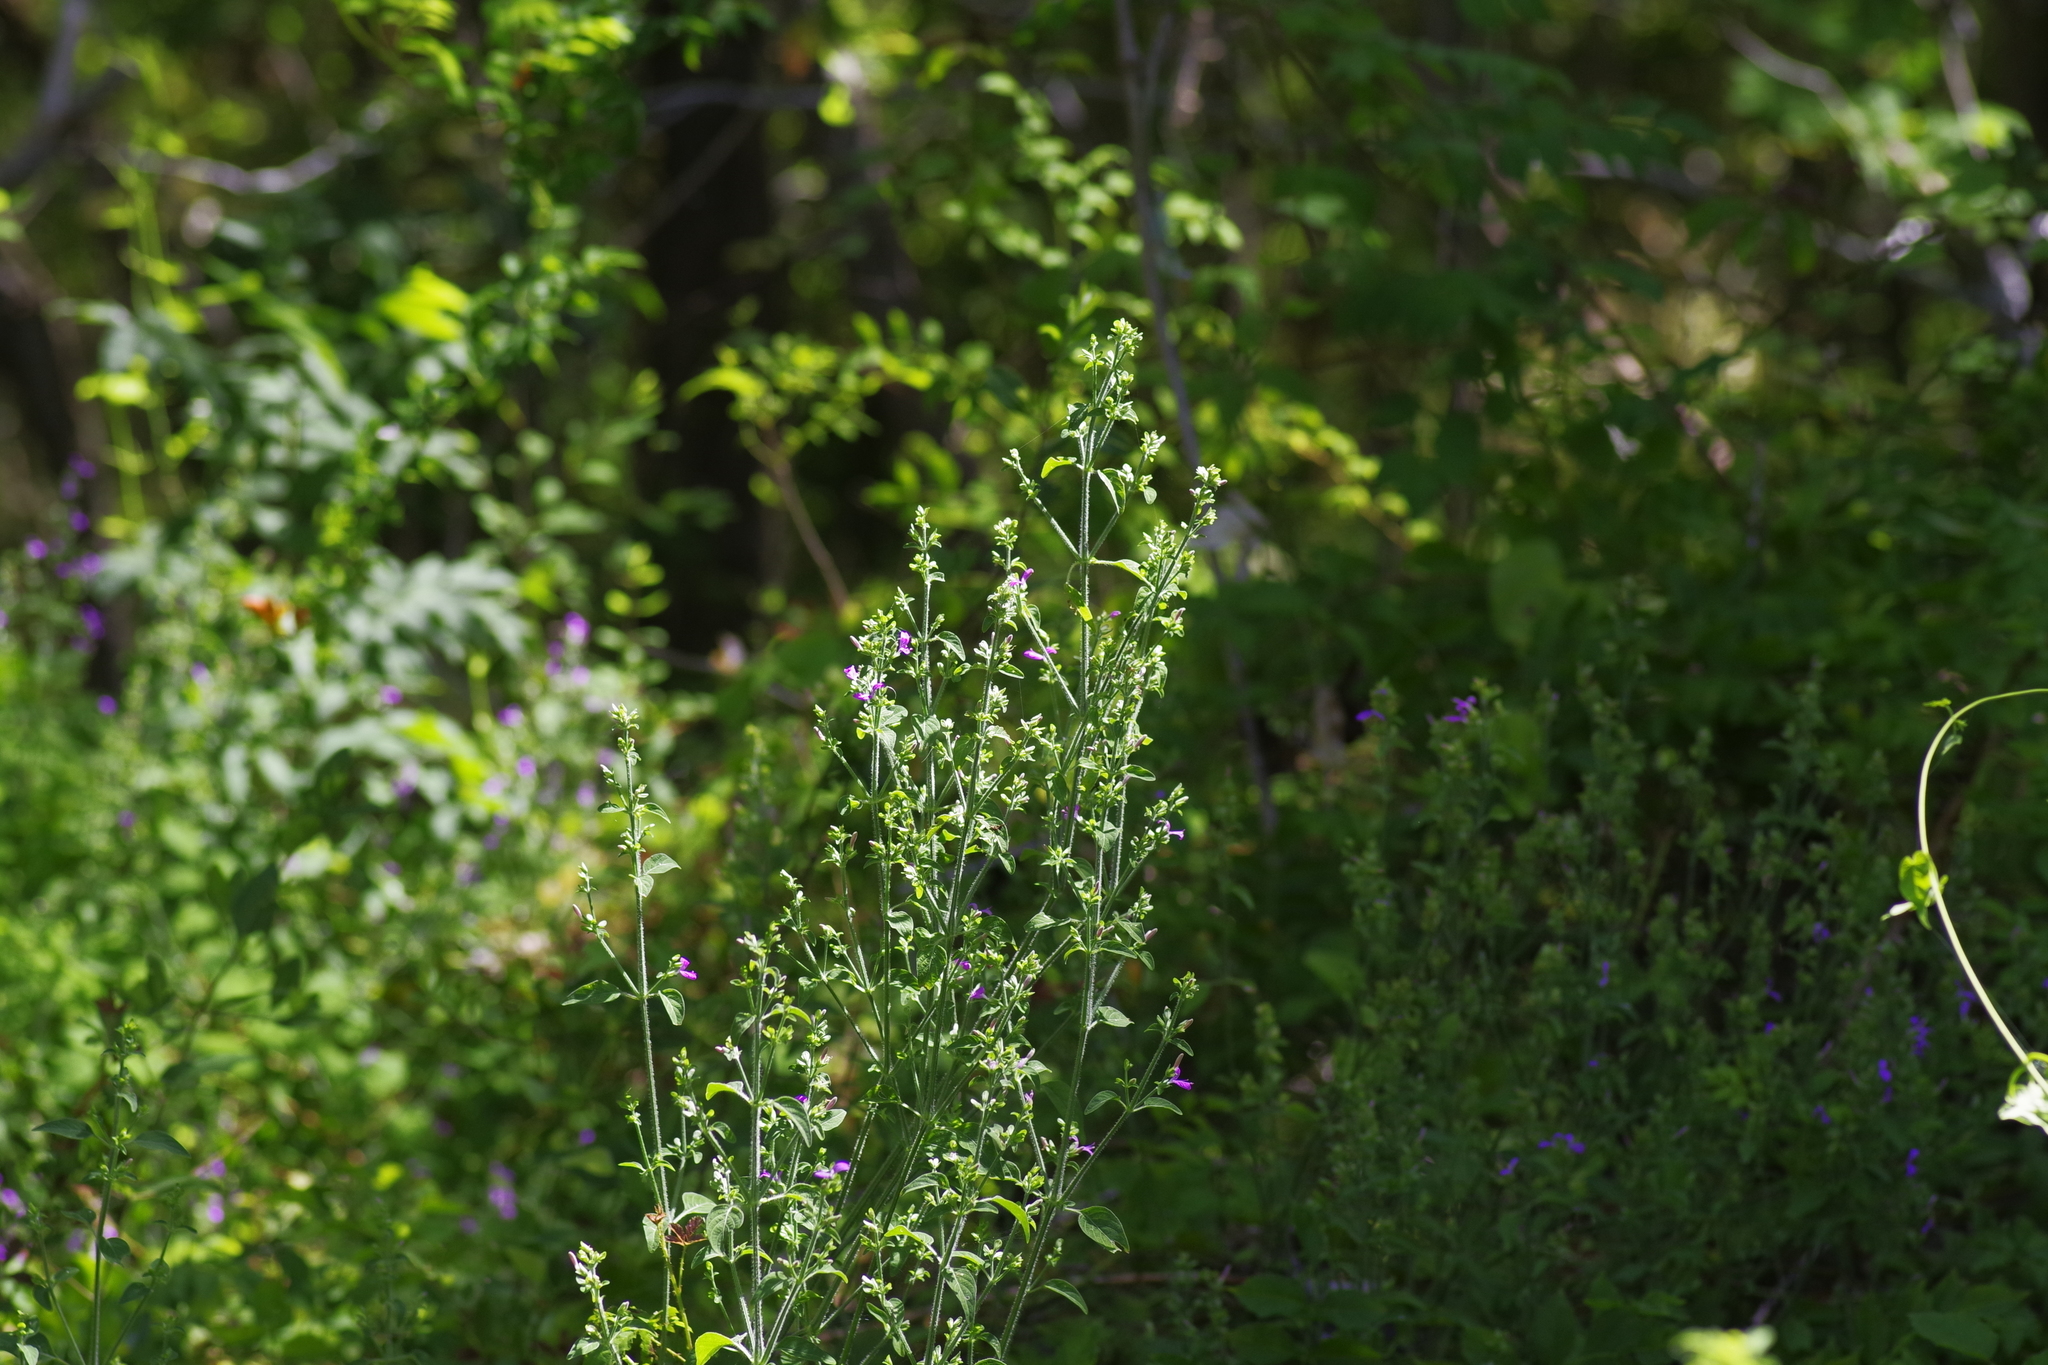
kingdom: Plantae
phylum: Tracheophyta
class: Magnoliopsida
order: Lamiales
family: Acanthaceae
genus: Dicliptera
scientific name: Dicliptera brachiata
